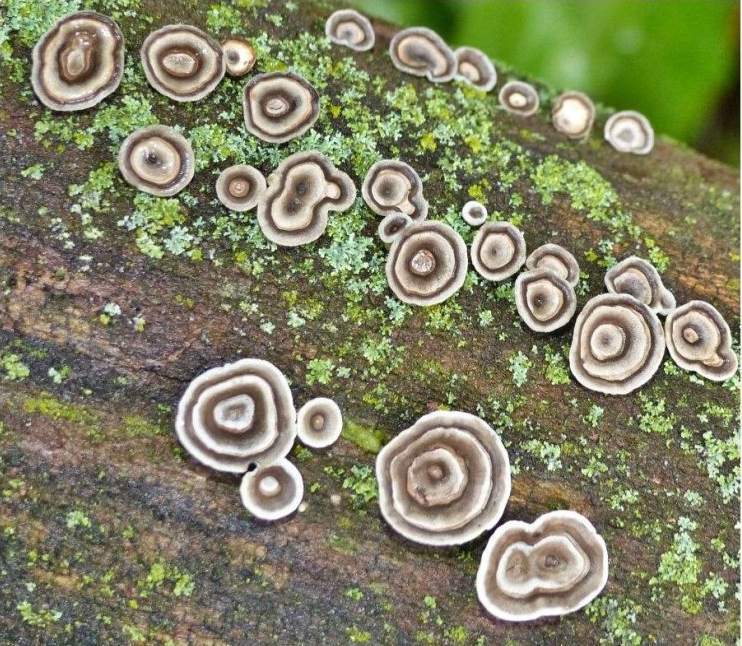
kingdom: Fungi
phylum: Basidiomycota
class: Agaricomycetes
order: Polyporales
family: Polyporaceae
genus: Poronidulus
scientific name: Poronidulus conchifer
